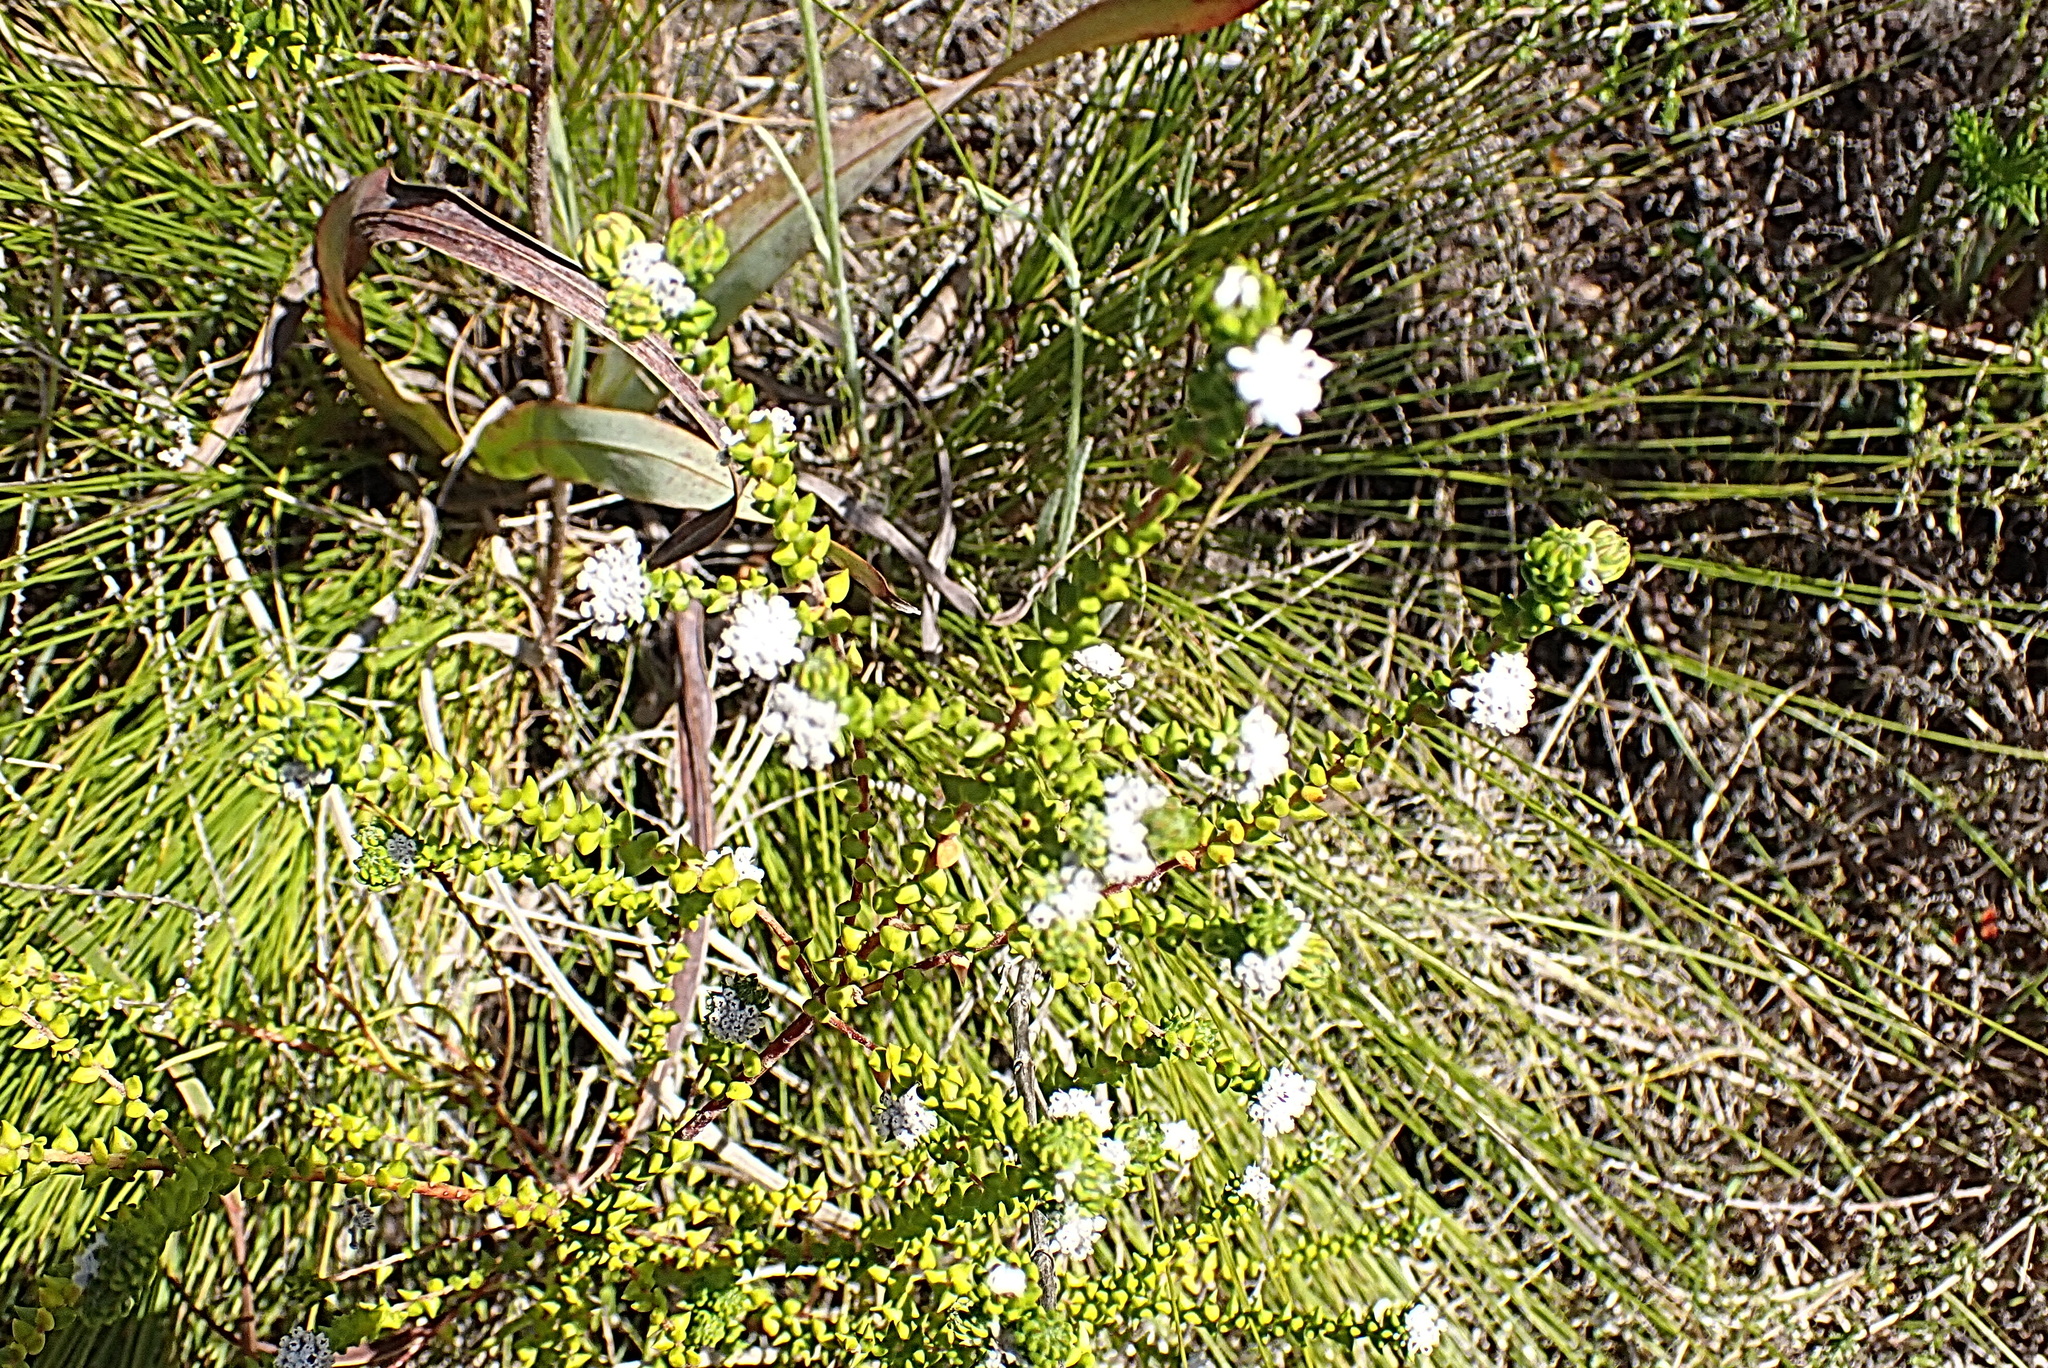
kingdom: Plantae
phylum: Tracheophyta
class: Magnoliopsida
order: Rosales
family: Rhamnaceae
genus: Phylica
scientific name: Phylica debilis
